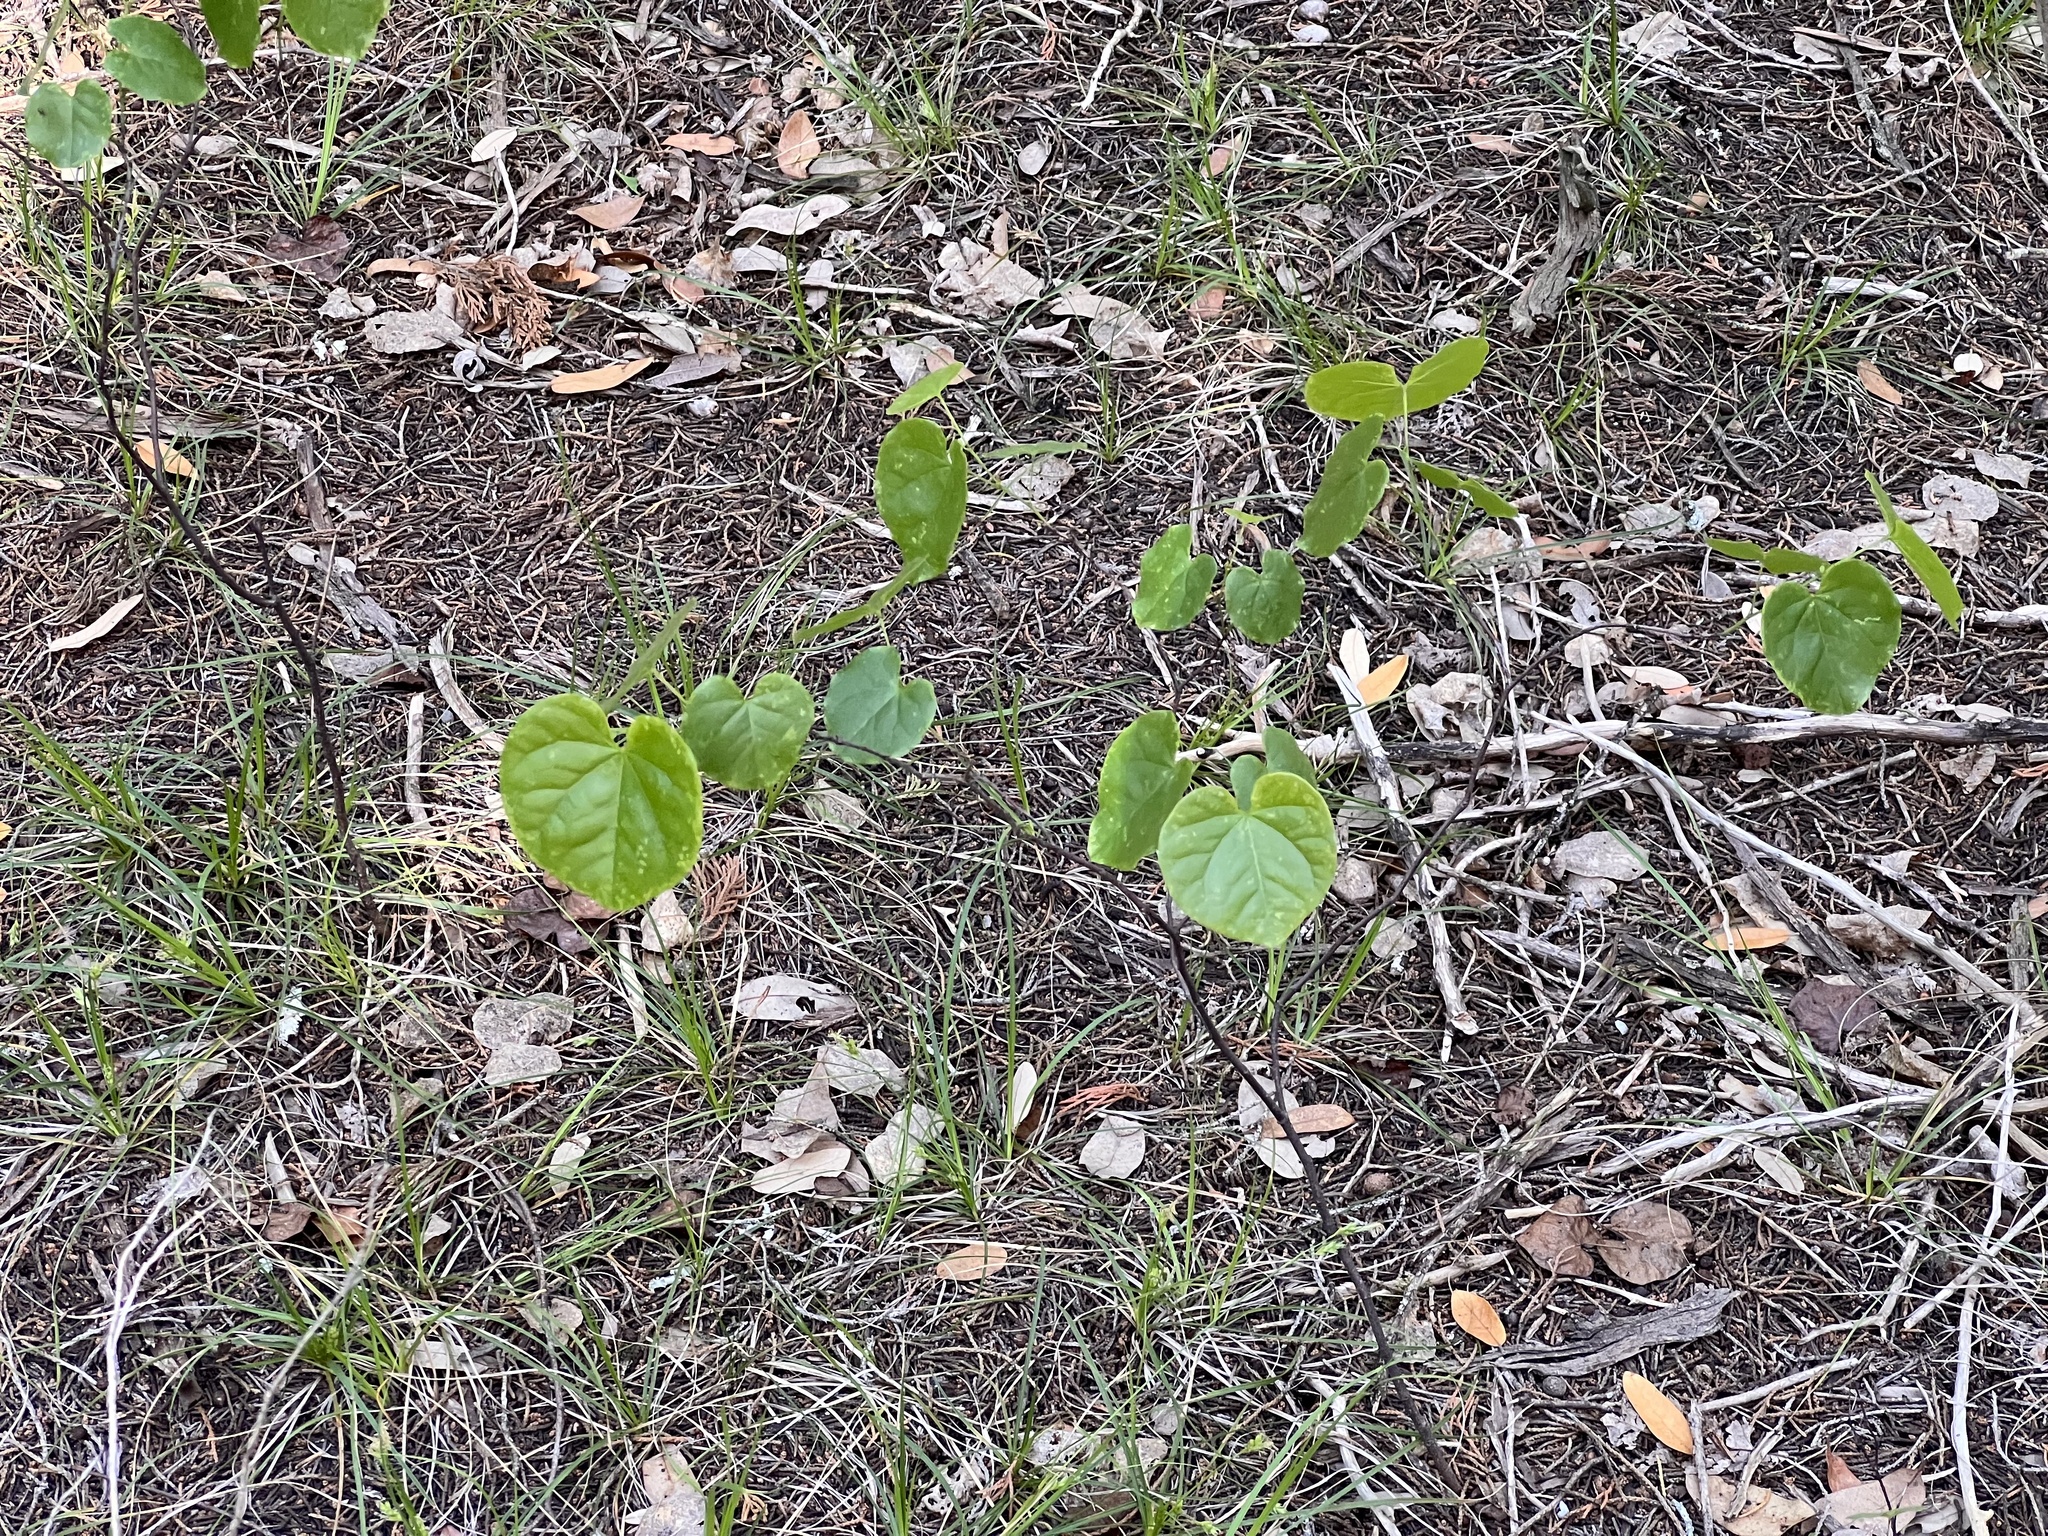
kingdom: Plantae
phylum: Tracheophyta
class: Magnoliopsida
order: Fabales
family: Fabaceae
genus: Cercis
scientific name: Cercis canadensis
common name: Eastern redbud
